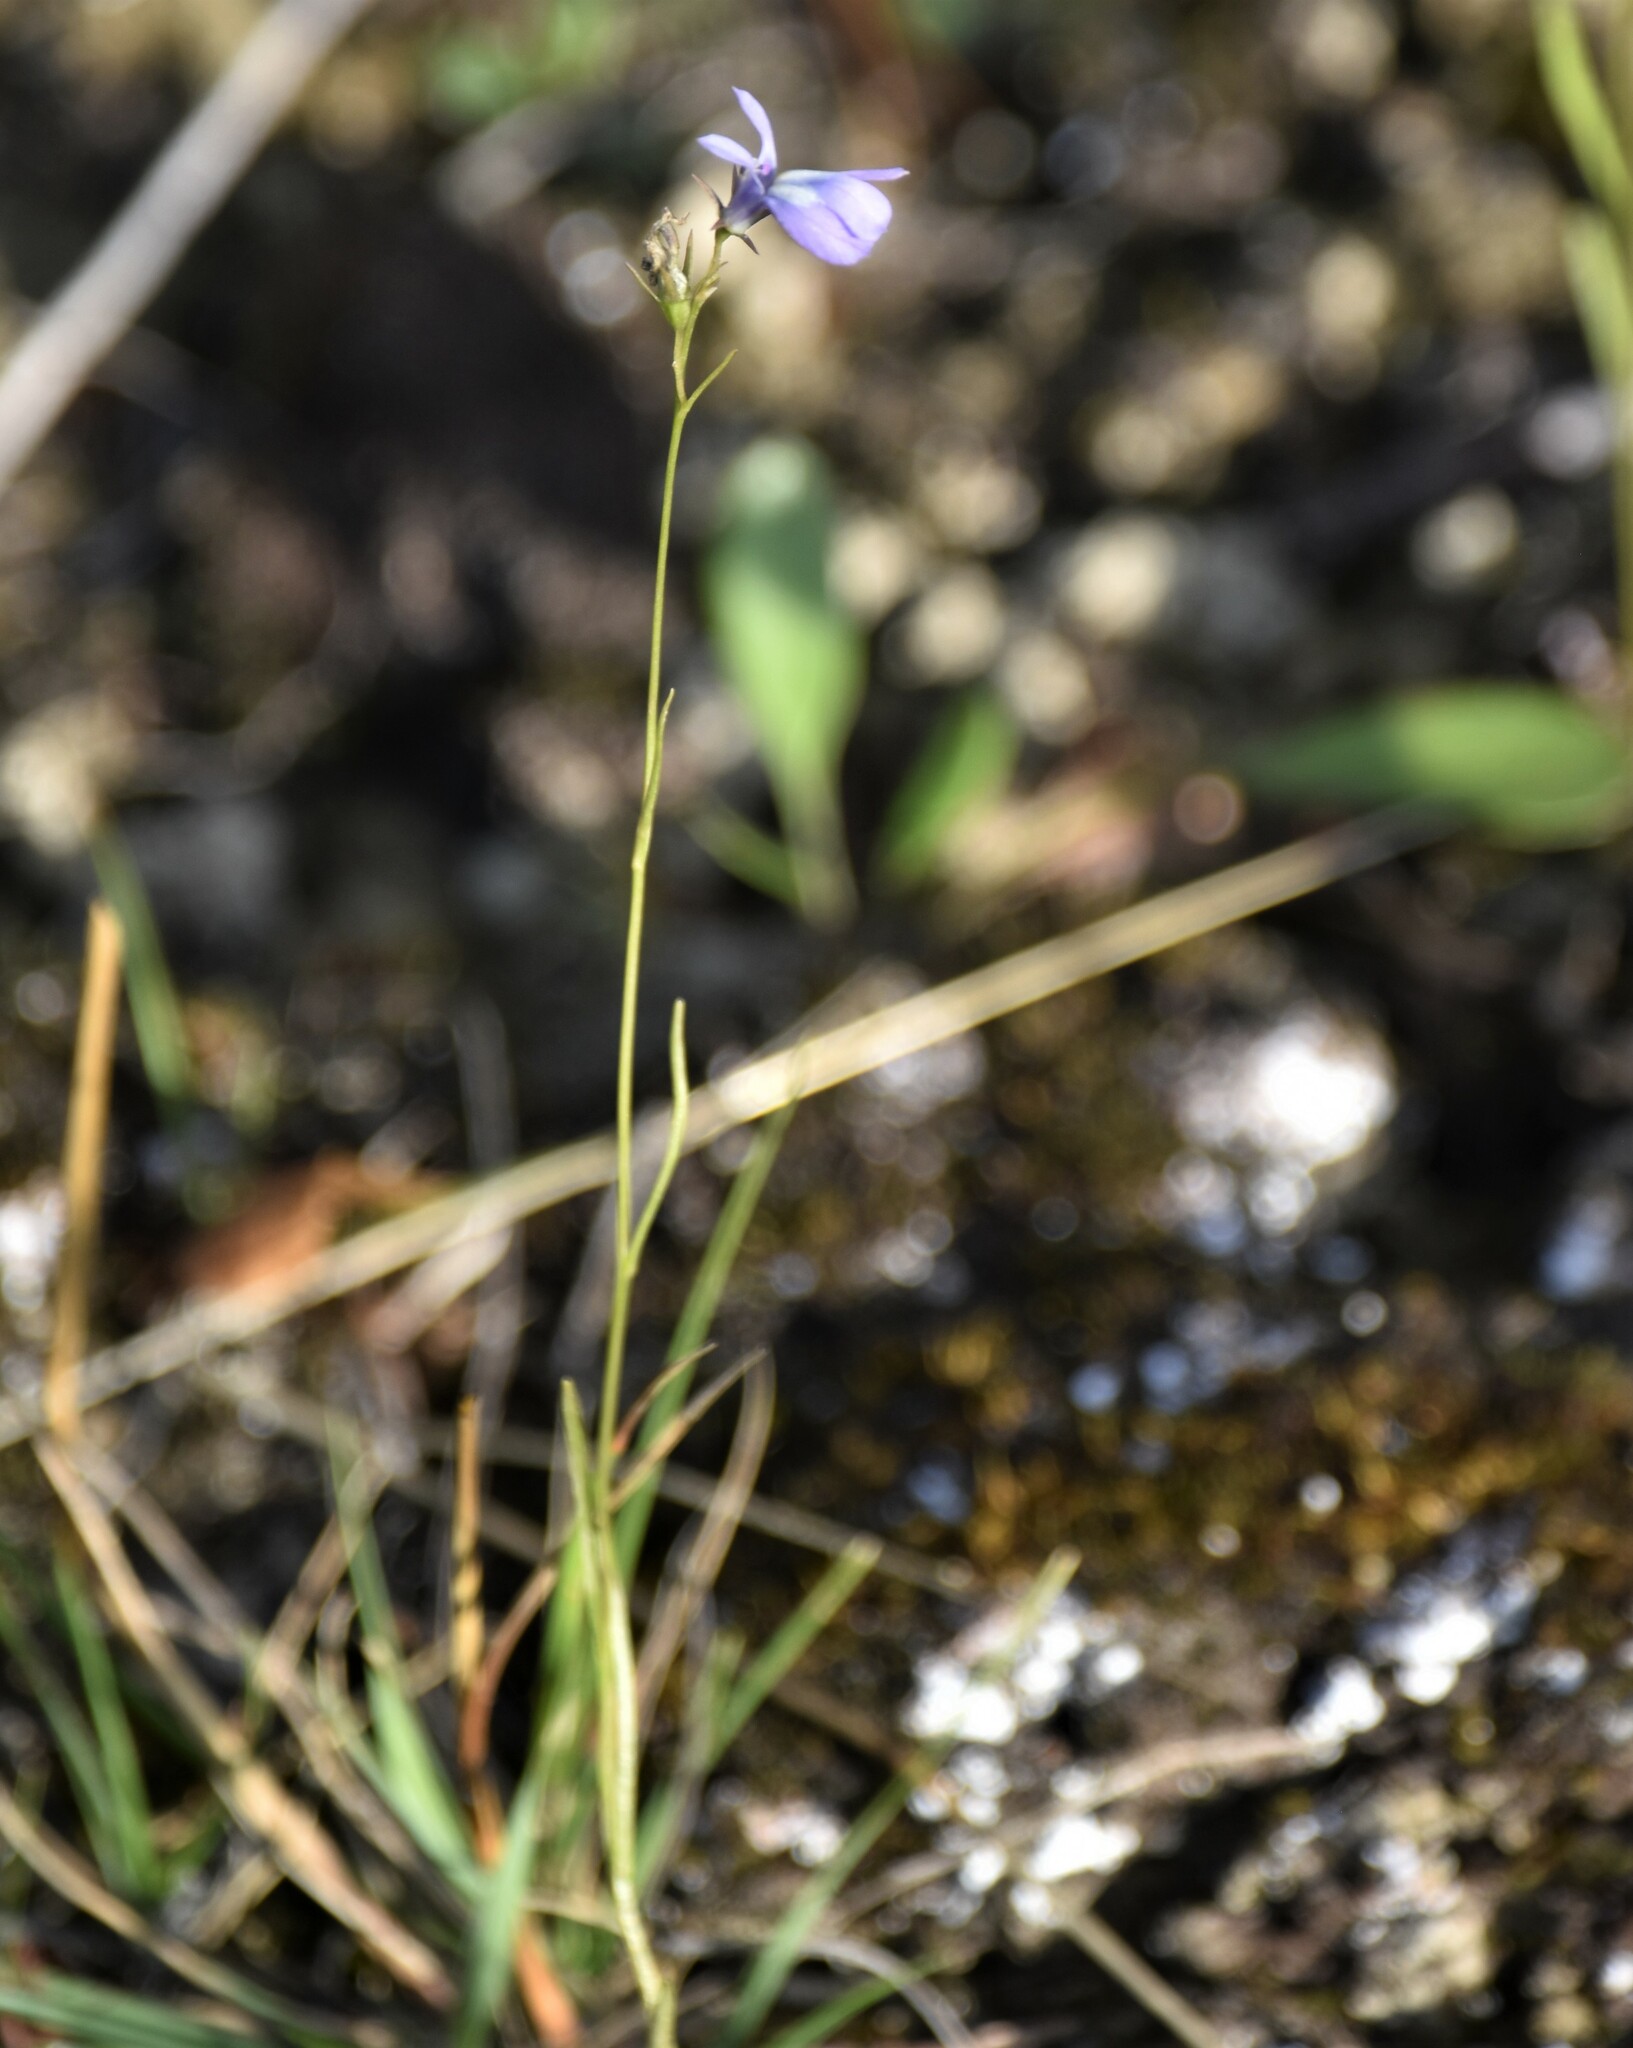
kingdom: Plantae
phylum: Tracheophyta
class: Magnoliopsida
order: Asterales
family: Campanulaceae
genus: Lobelia
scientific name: Lobelia kalmii
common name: Kalm's lobelia
